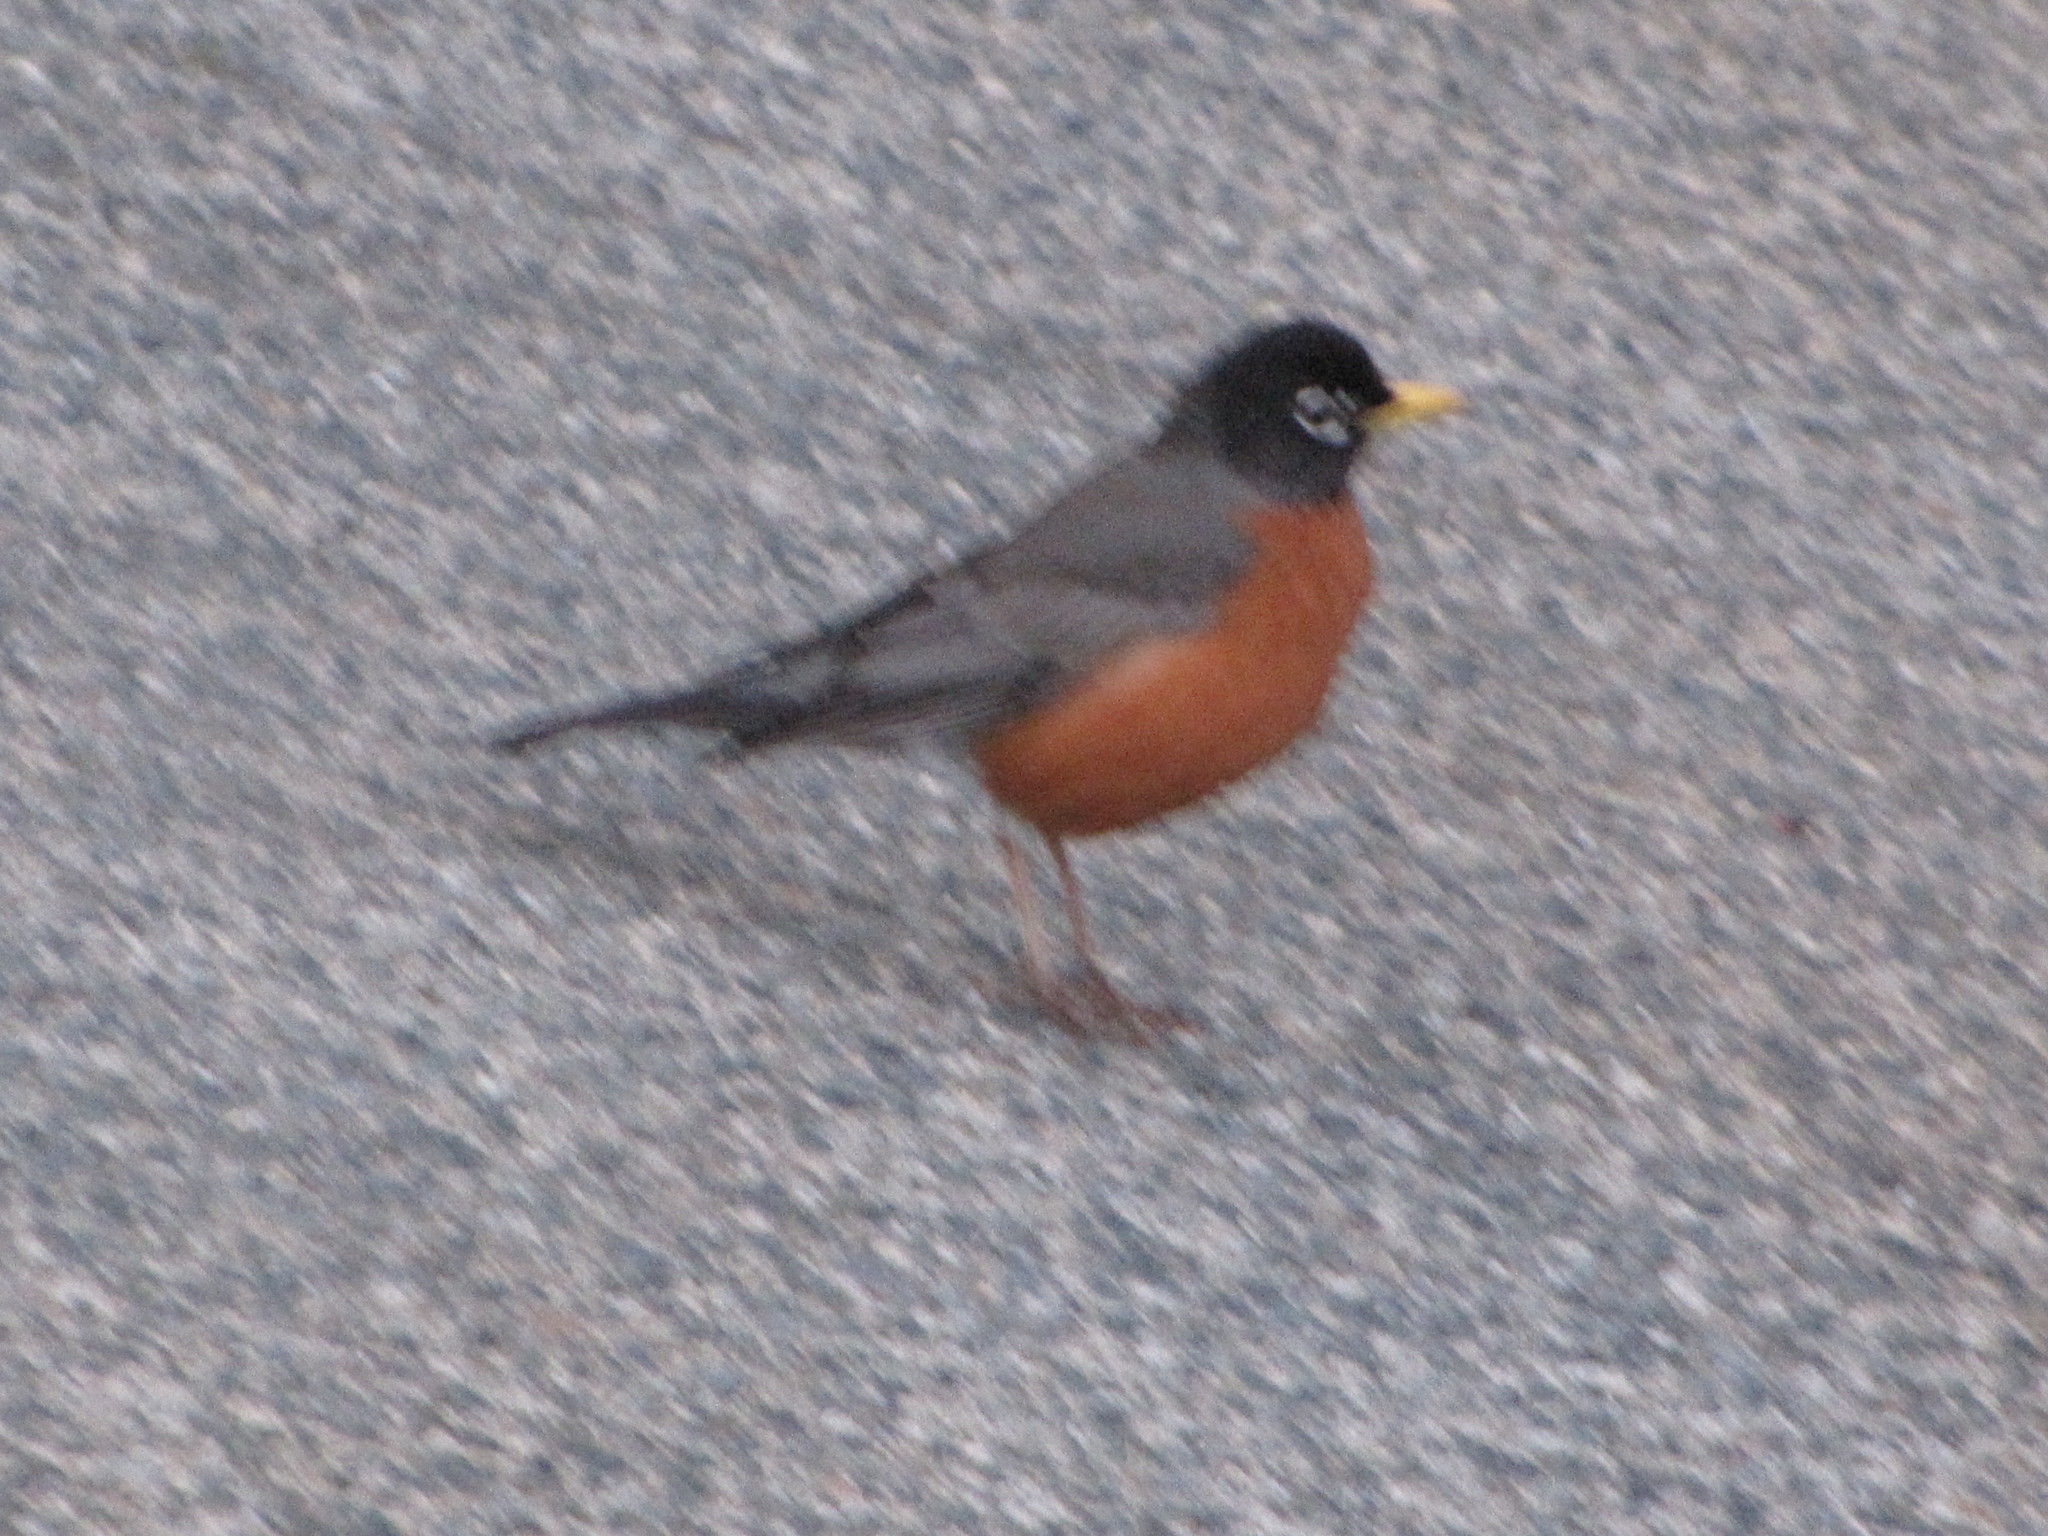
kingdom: Animalia
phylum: Chordata
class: Aves
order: Passeriformes
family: Turdidae
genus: Turdus
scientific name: Turdus migratorius
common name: American robin
